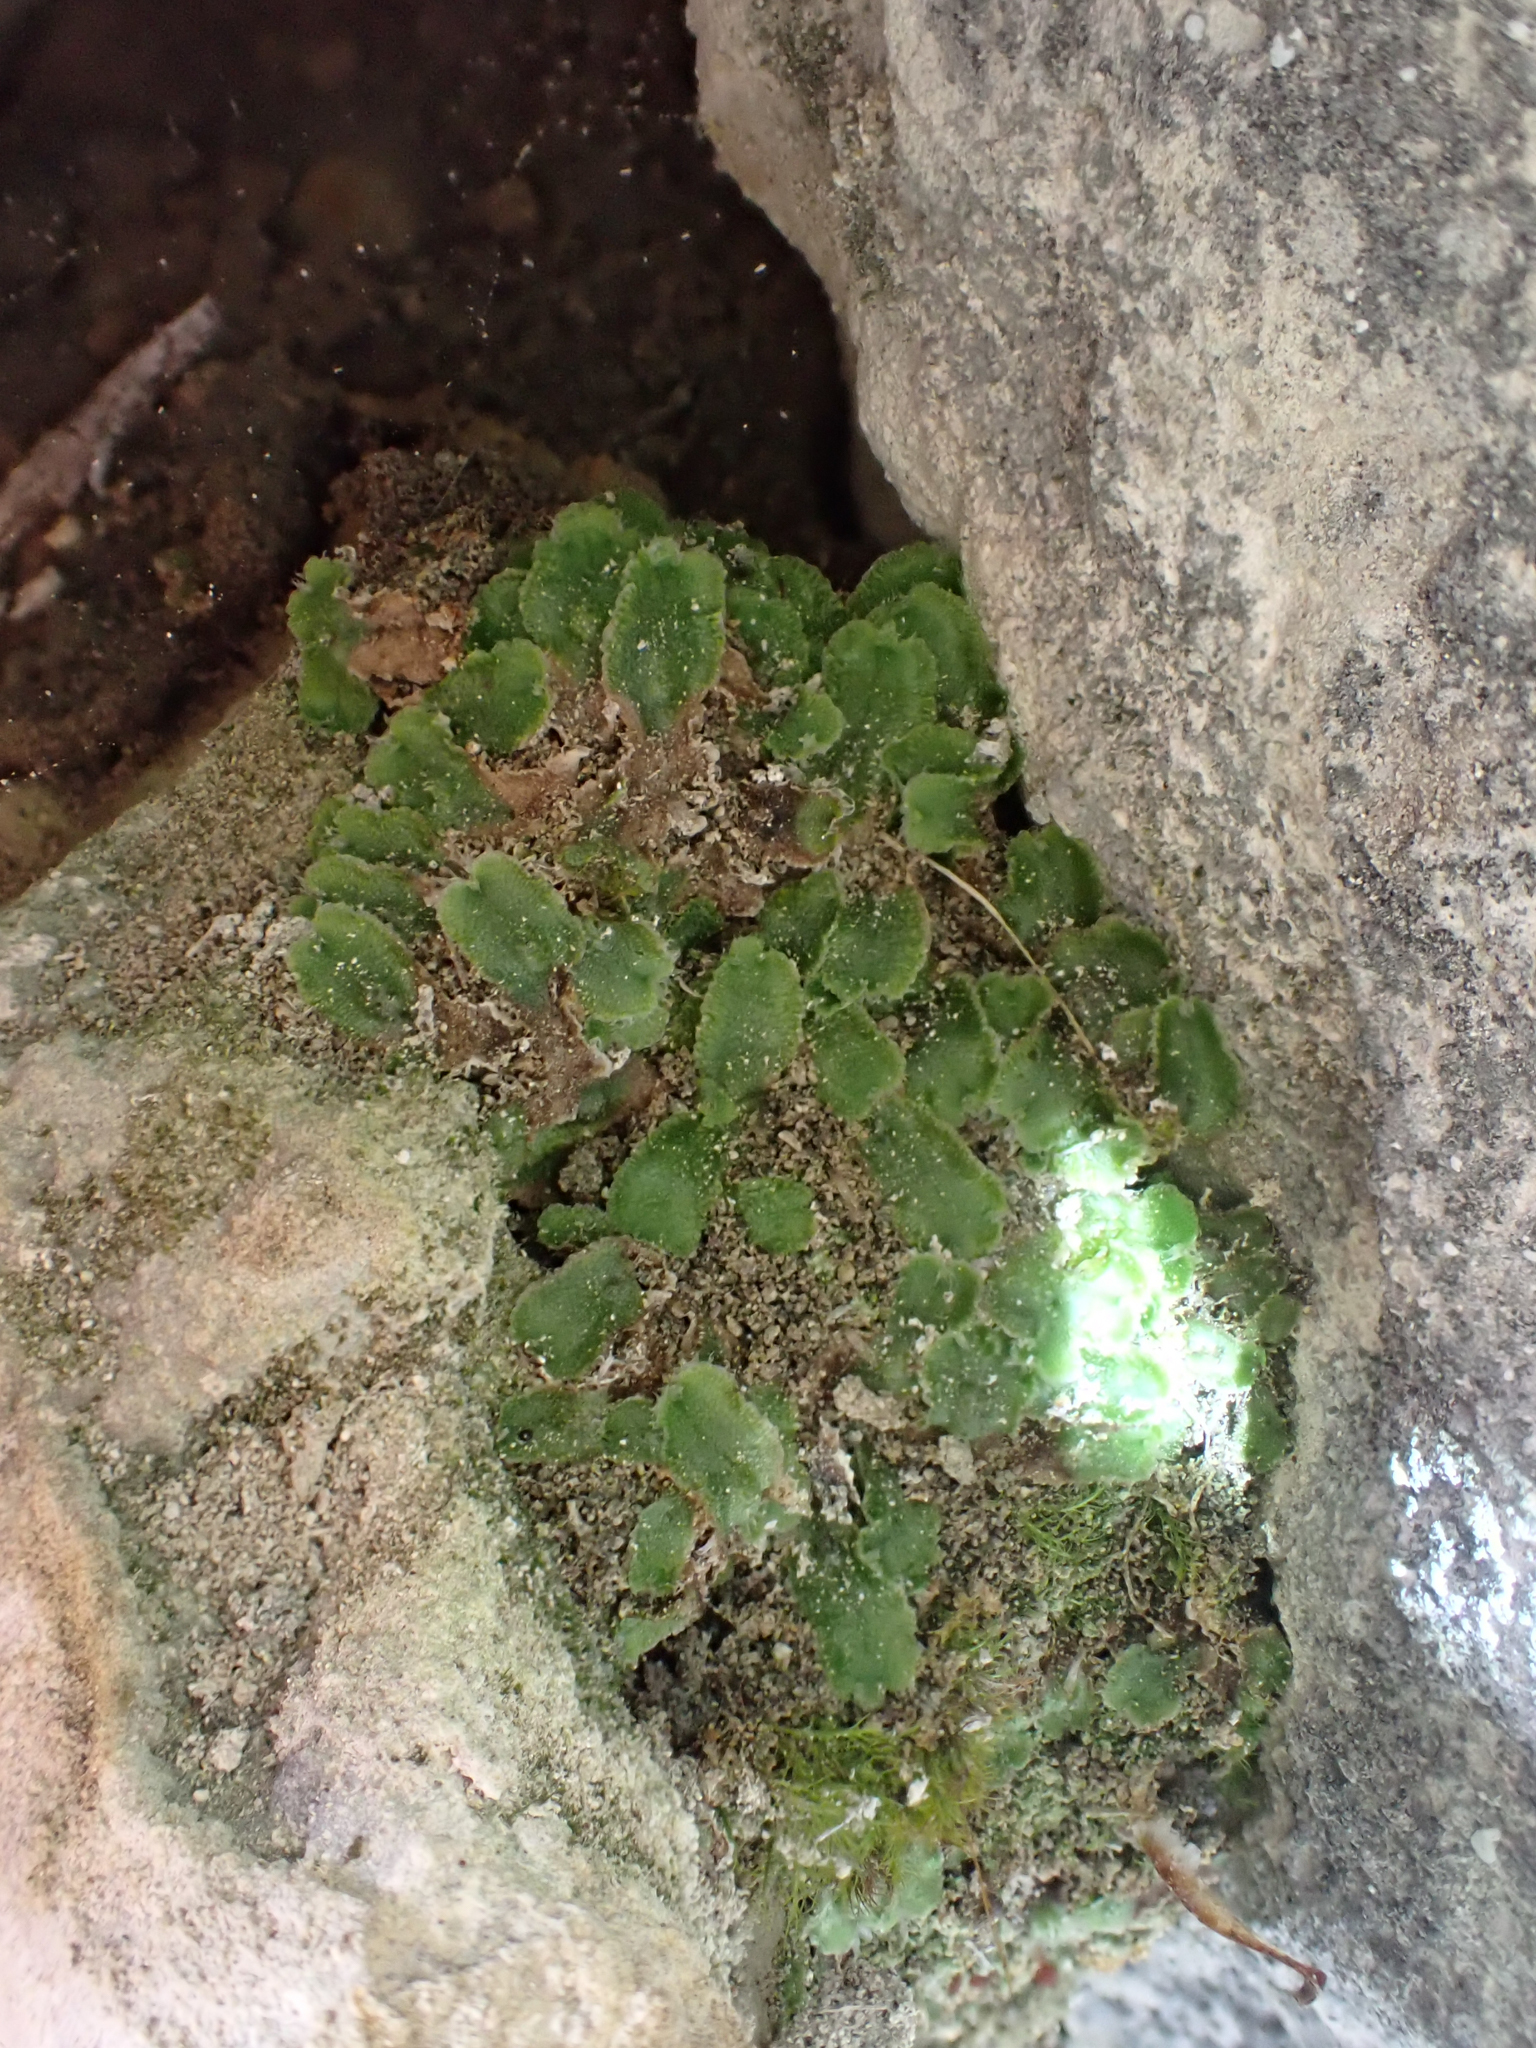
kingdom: Plantae
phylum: Marchantiophyta
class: Marchantiopsida
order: Marchantiales
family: Cleveaceae
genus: Clevea
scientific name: Clevea hyalina
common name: Hyaline liverwort
